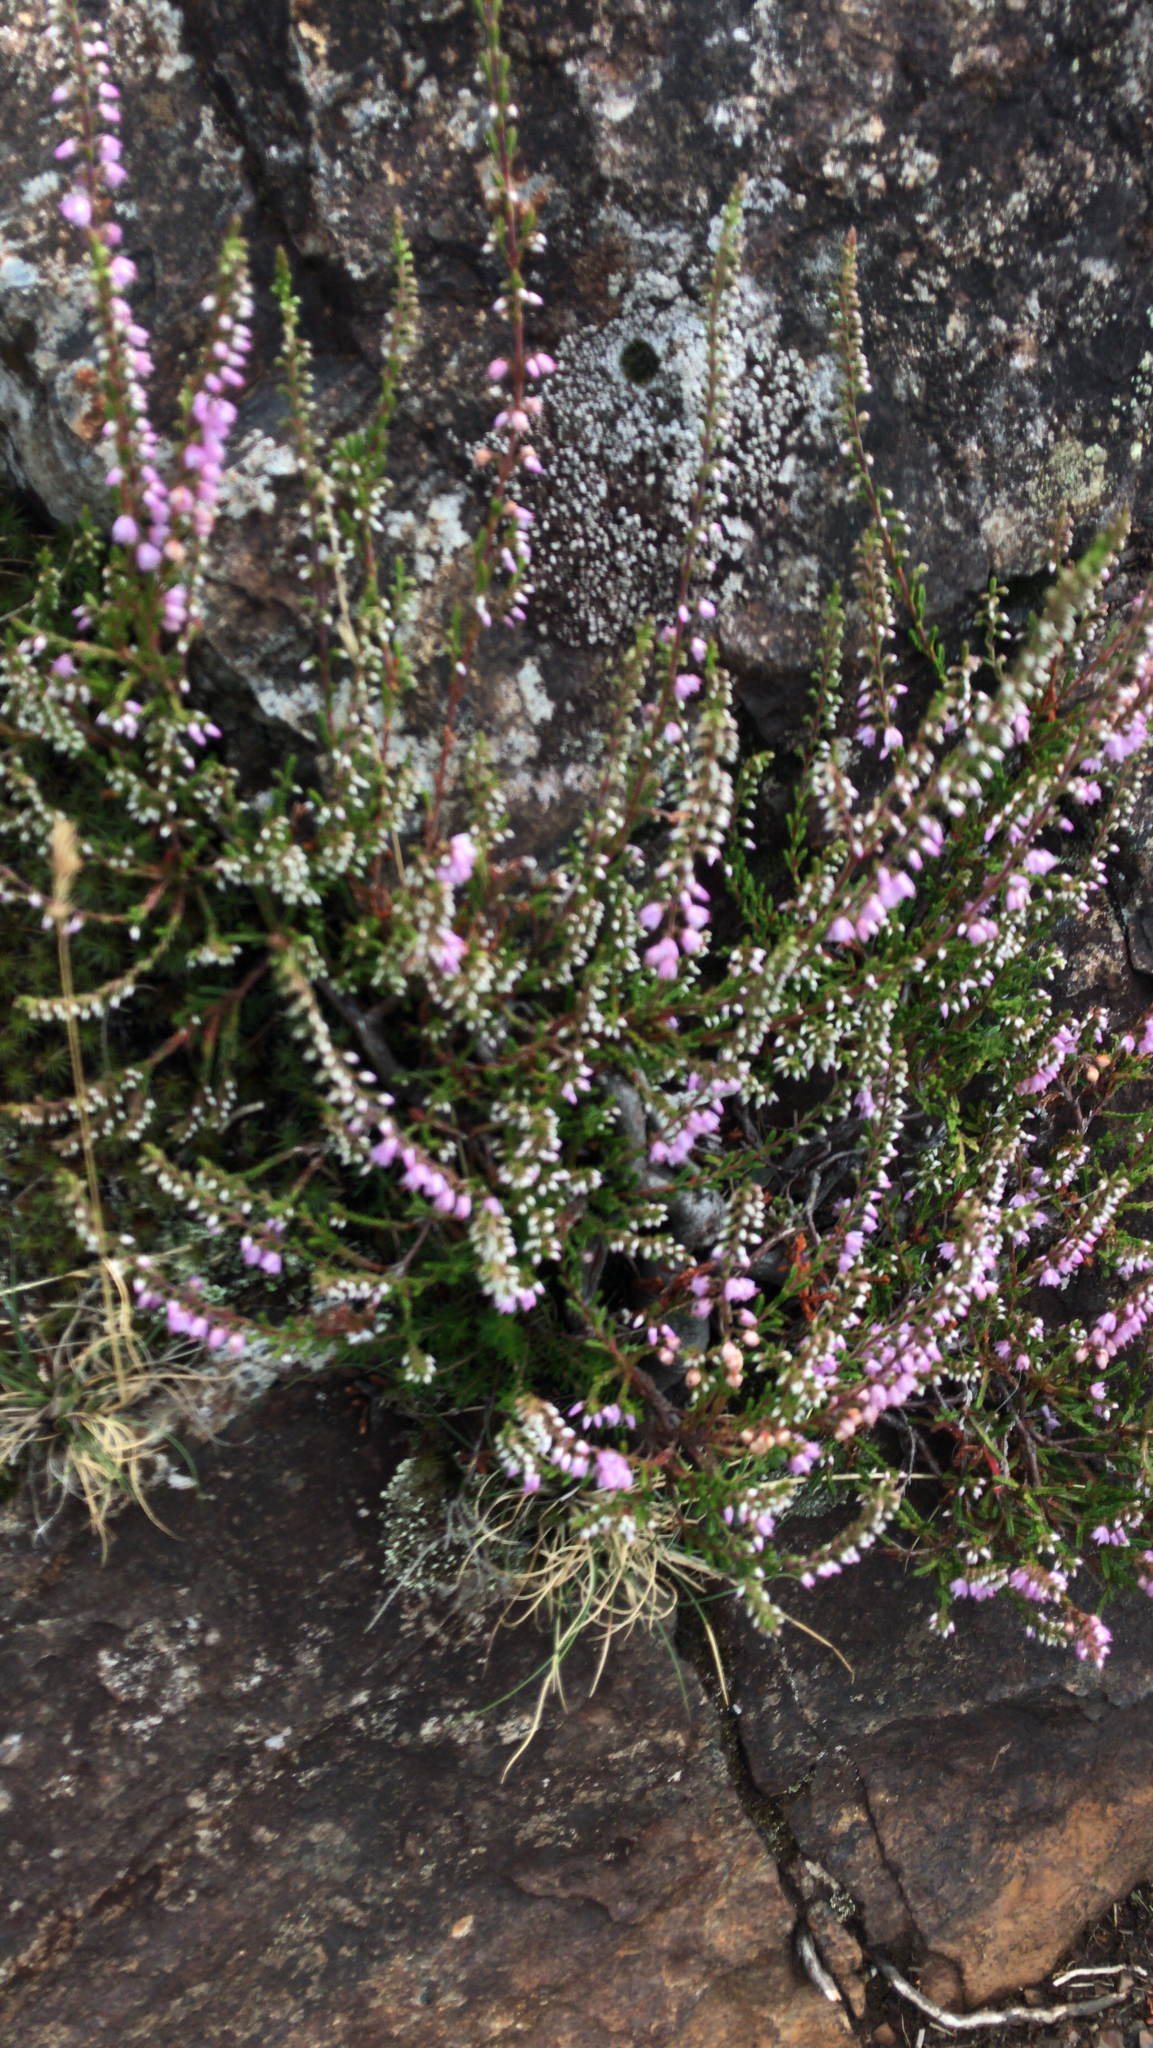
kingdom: Plantae
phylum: Tracheophyta
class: Magnoliopsida
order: Ericales
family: Ericaceae
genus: Calluna
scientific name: Calluna vulgaris
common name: Heather
